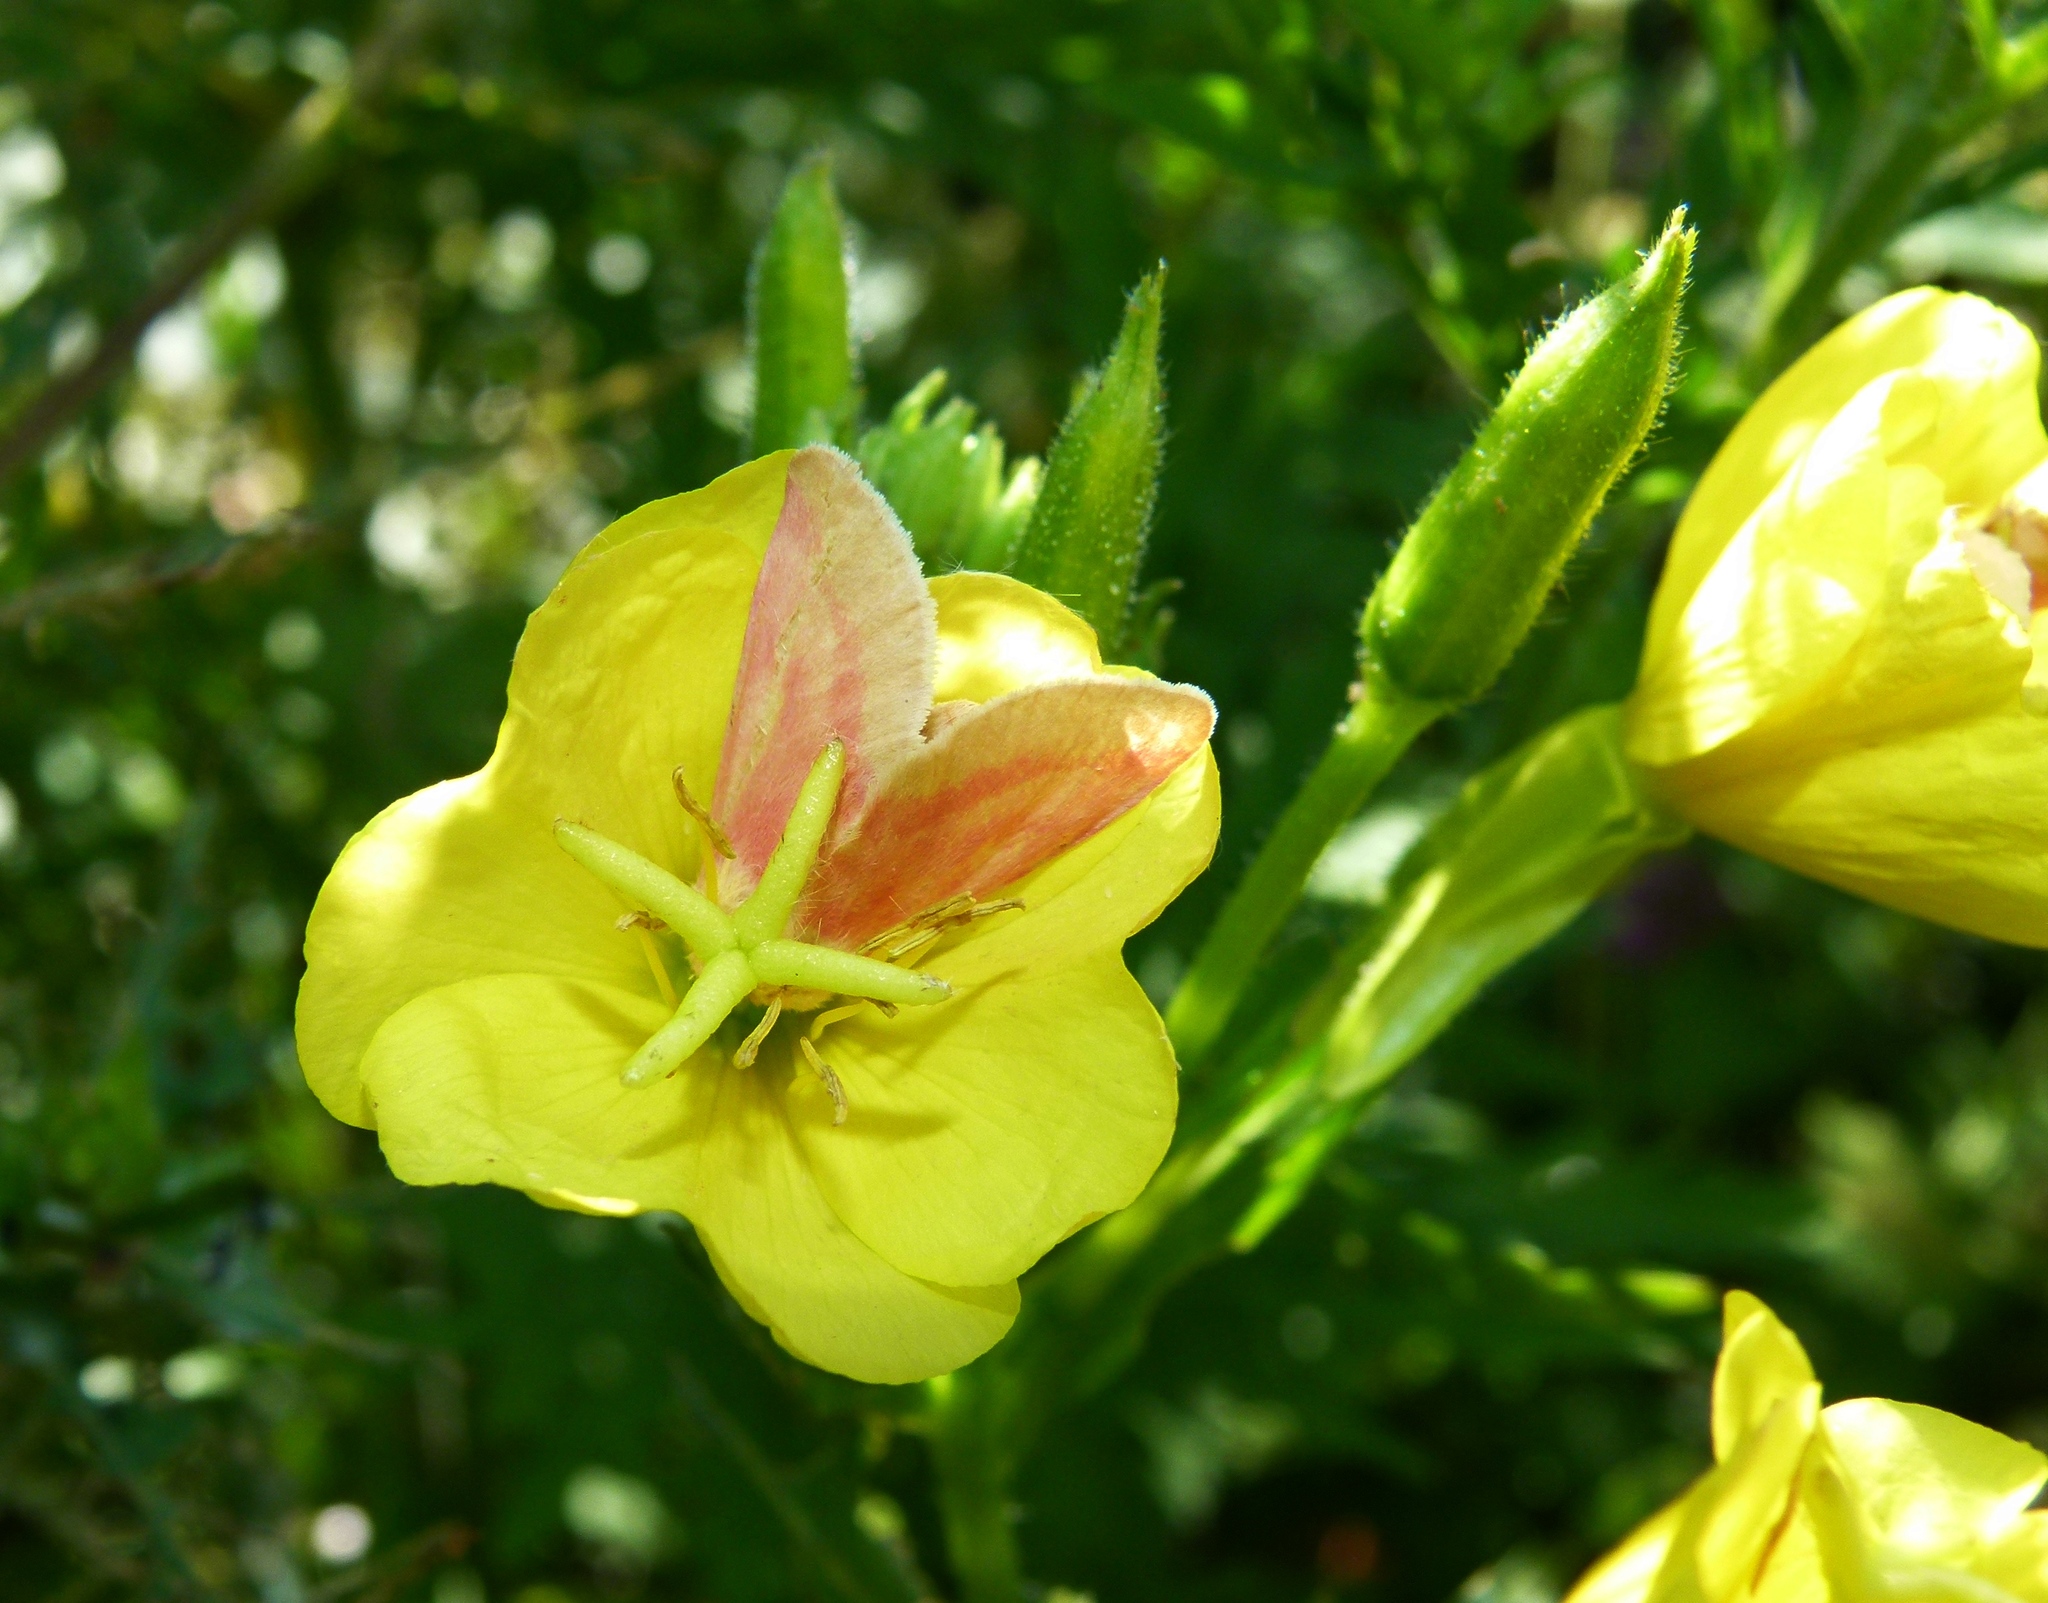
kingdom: Animalia
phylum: Arthropoda
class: Insecta
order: Lepidoptera
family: Noctuidae
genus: Schinia
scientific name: Schinia florida
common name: Primrose moth
